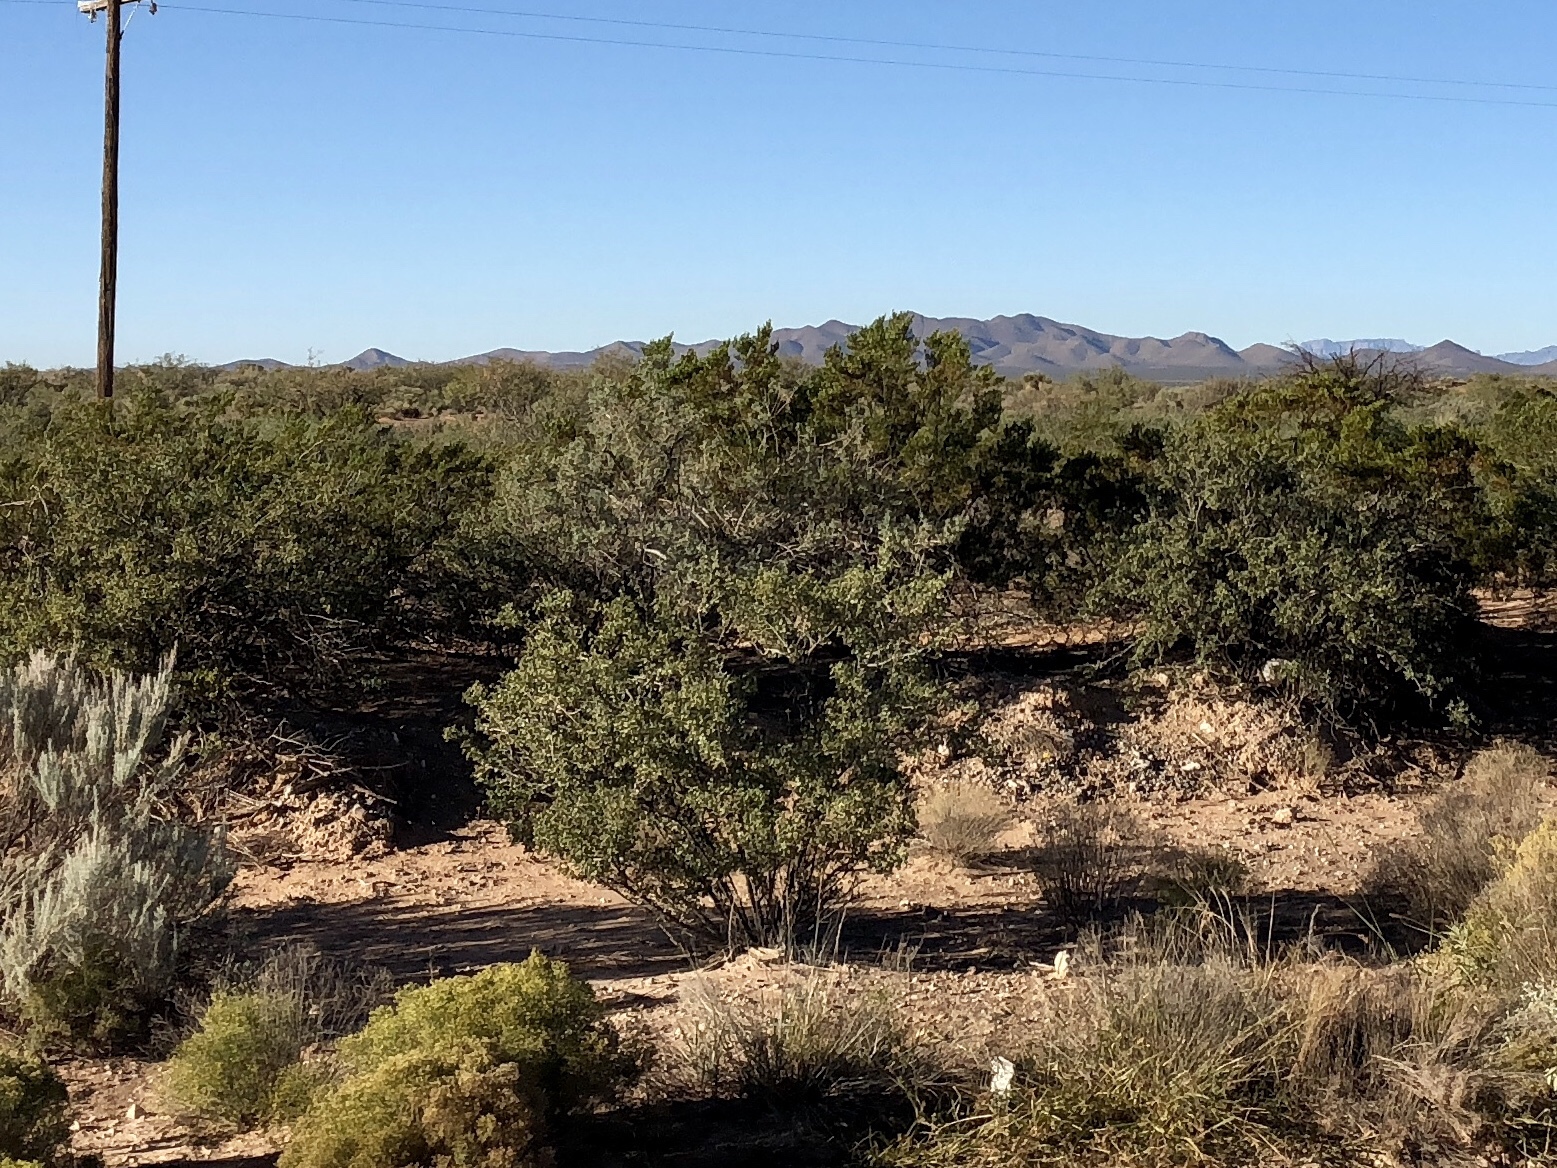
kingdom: Plantae
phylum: Tracheophyta
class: Magnoliopsida
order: Zygophyllales
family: Zygophyllaceae
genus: Larrea
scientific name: Larrea tridentata
